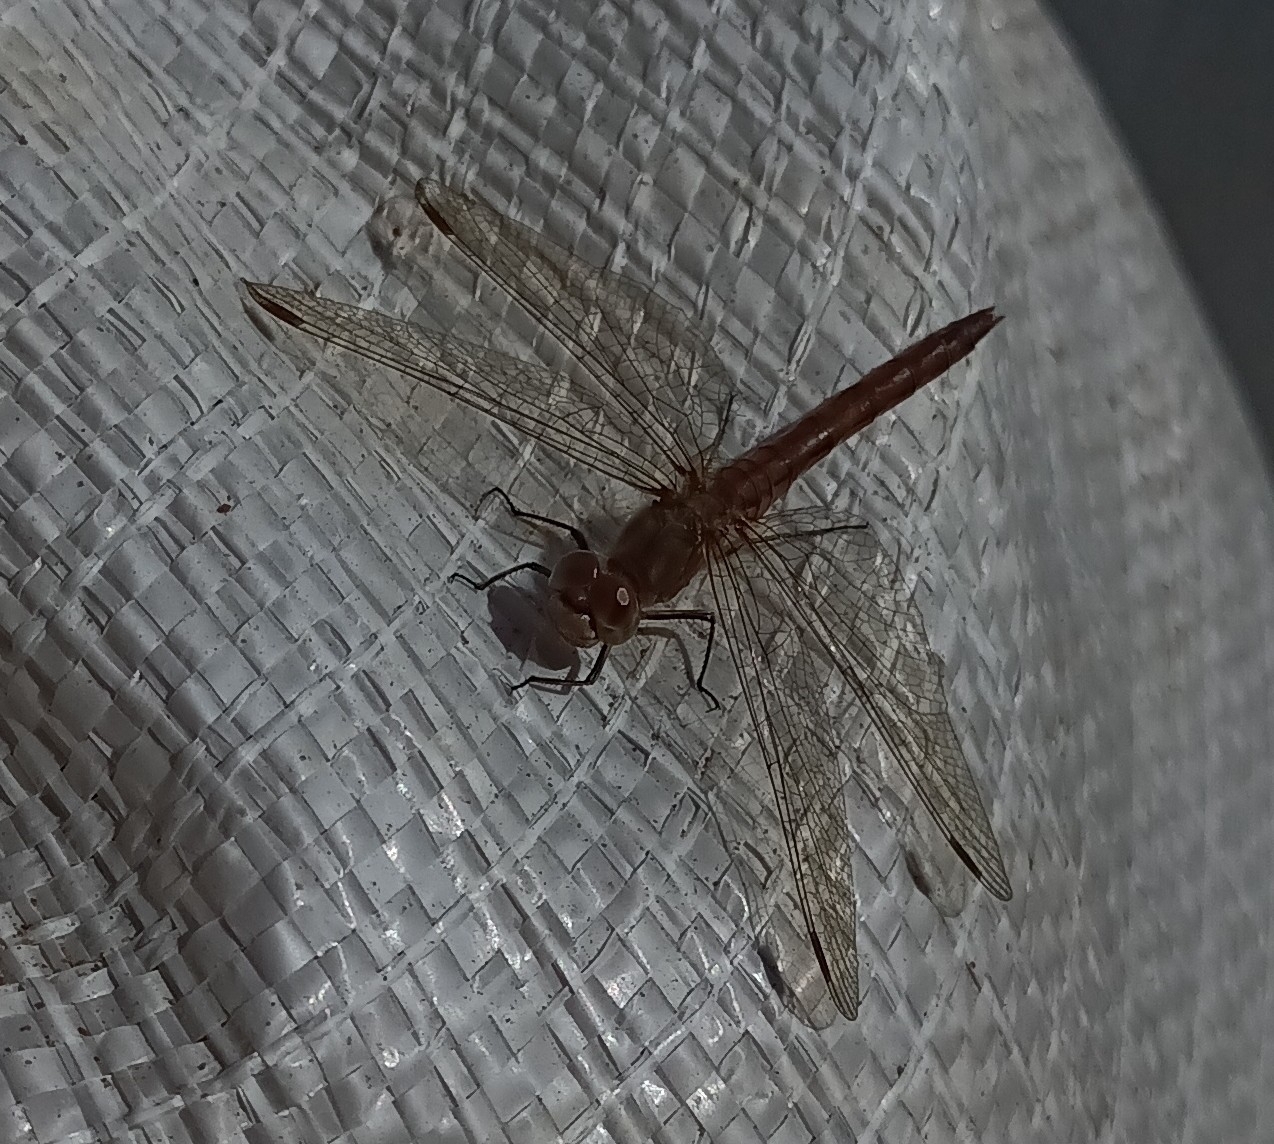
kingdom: Animalia
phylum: Arthropoda
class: Insecta
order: Odonata
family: Libellulidae
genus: Sympetrum
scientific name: Sympetrum vulgatum
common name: Vagrant darter
